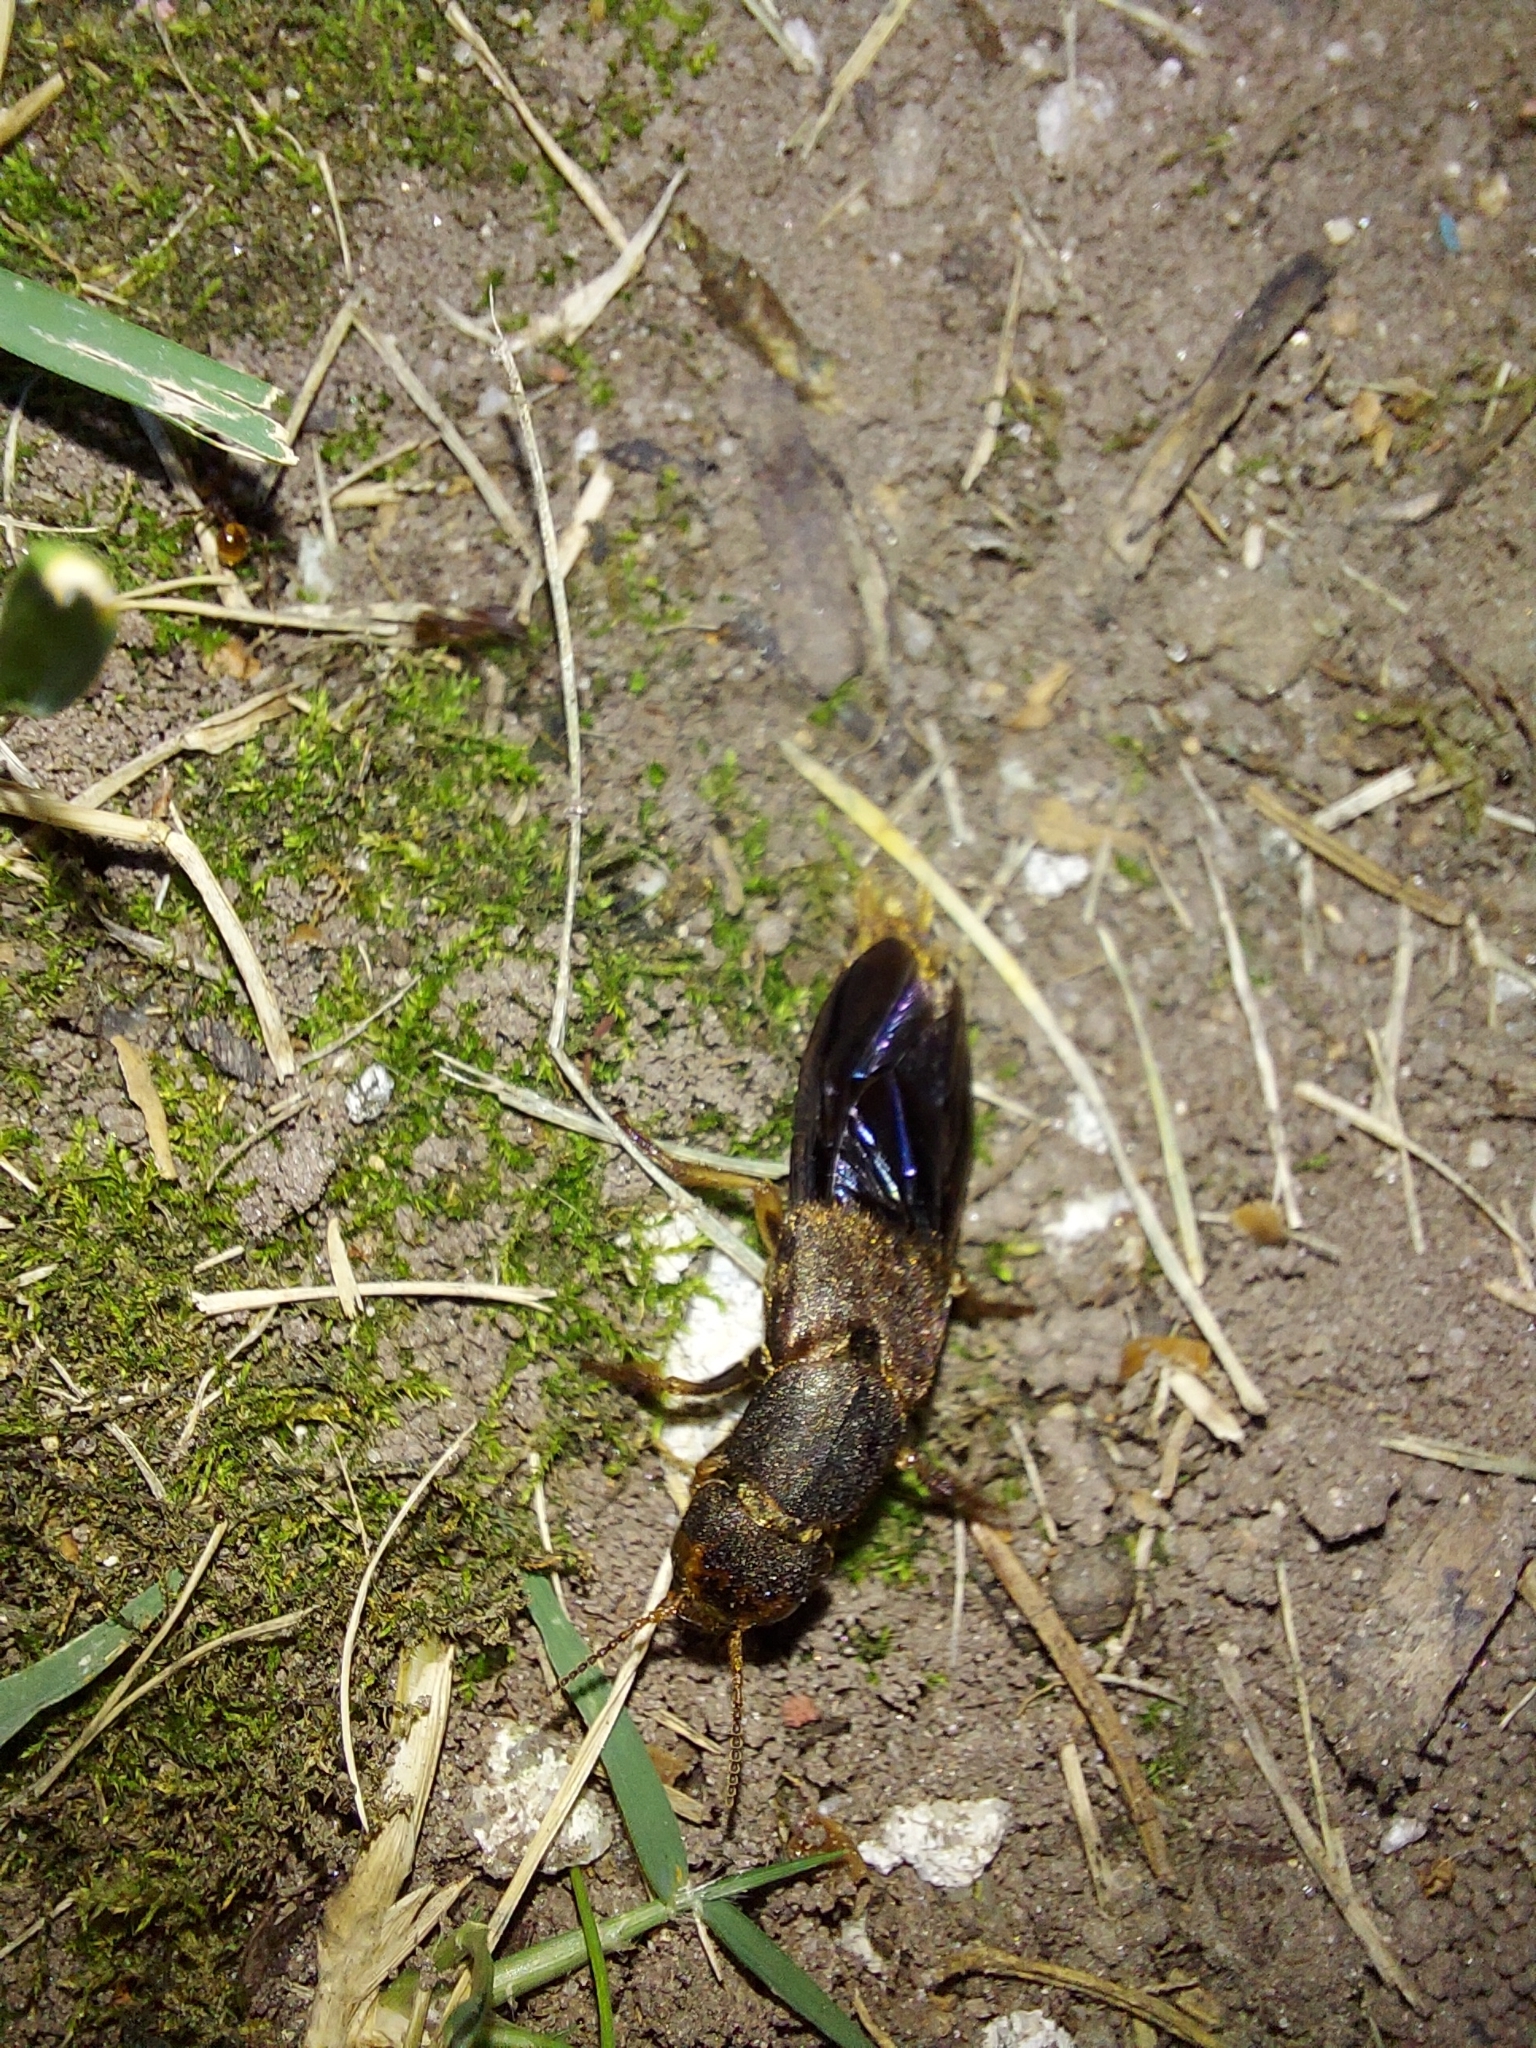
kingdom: Animalia
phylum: Arthropoda
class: Insecta
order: Coleoptera
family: Staphylinidae
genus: Platydracus
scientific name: Platydracus maculosus
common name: Brown rove beetle
